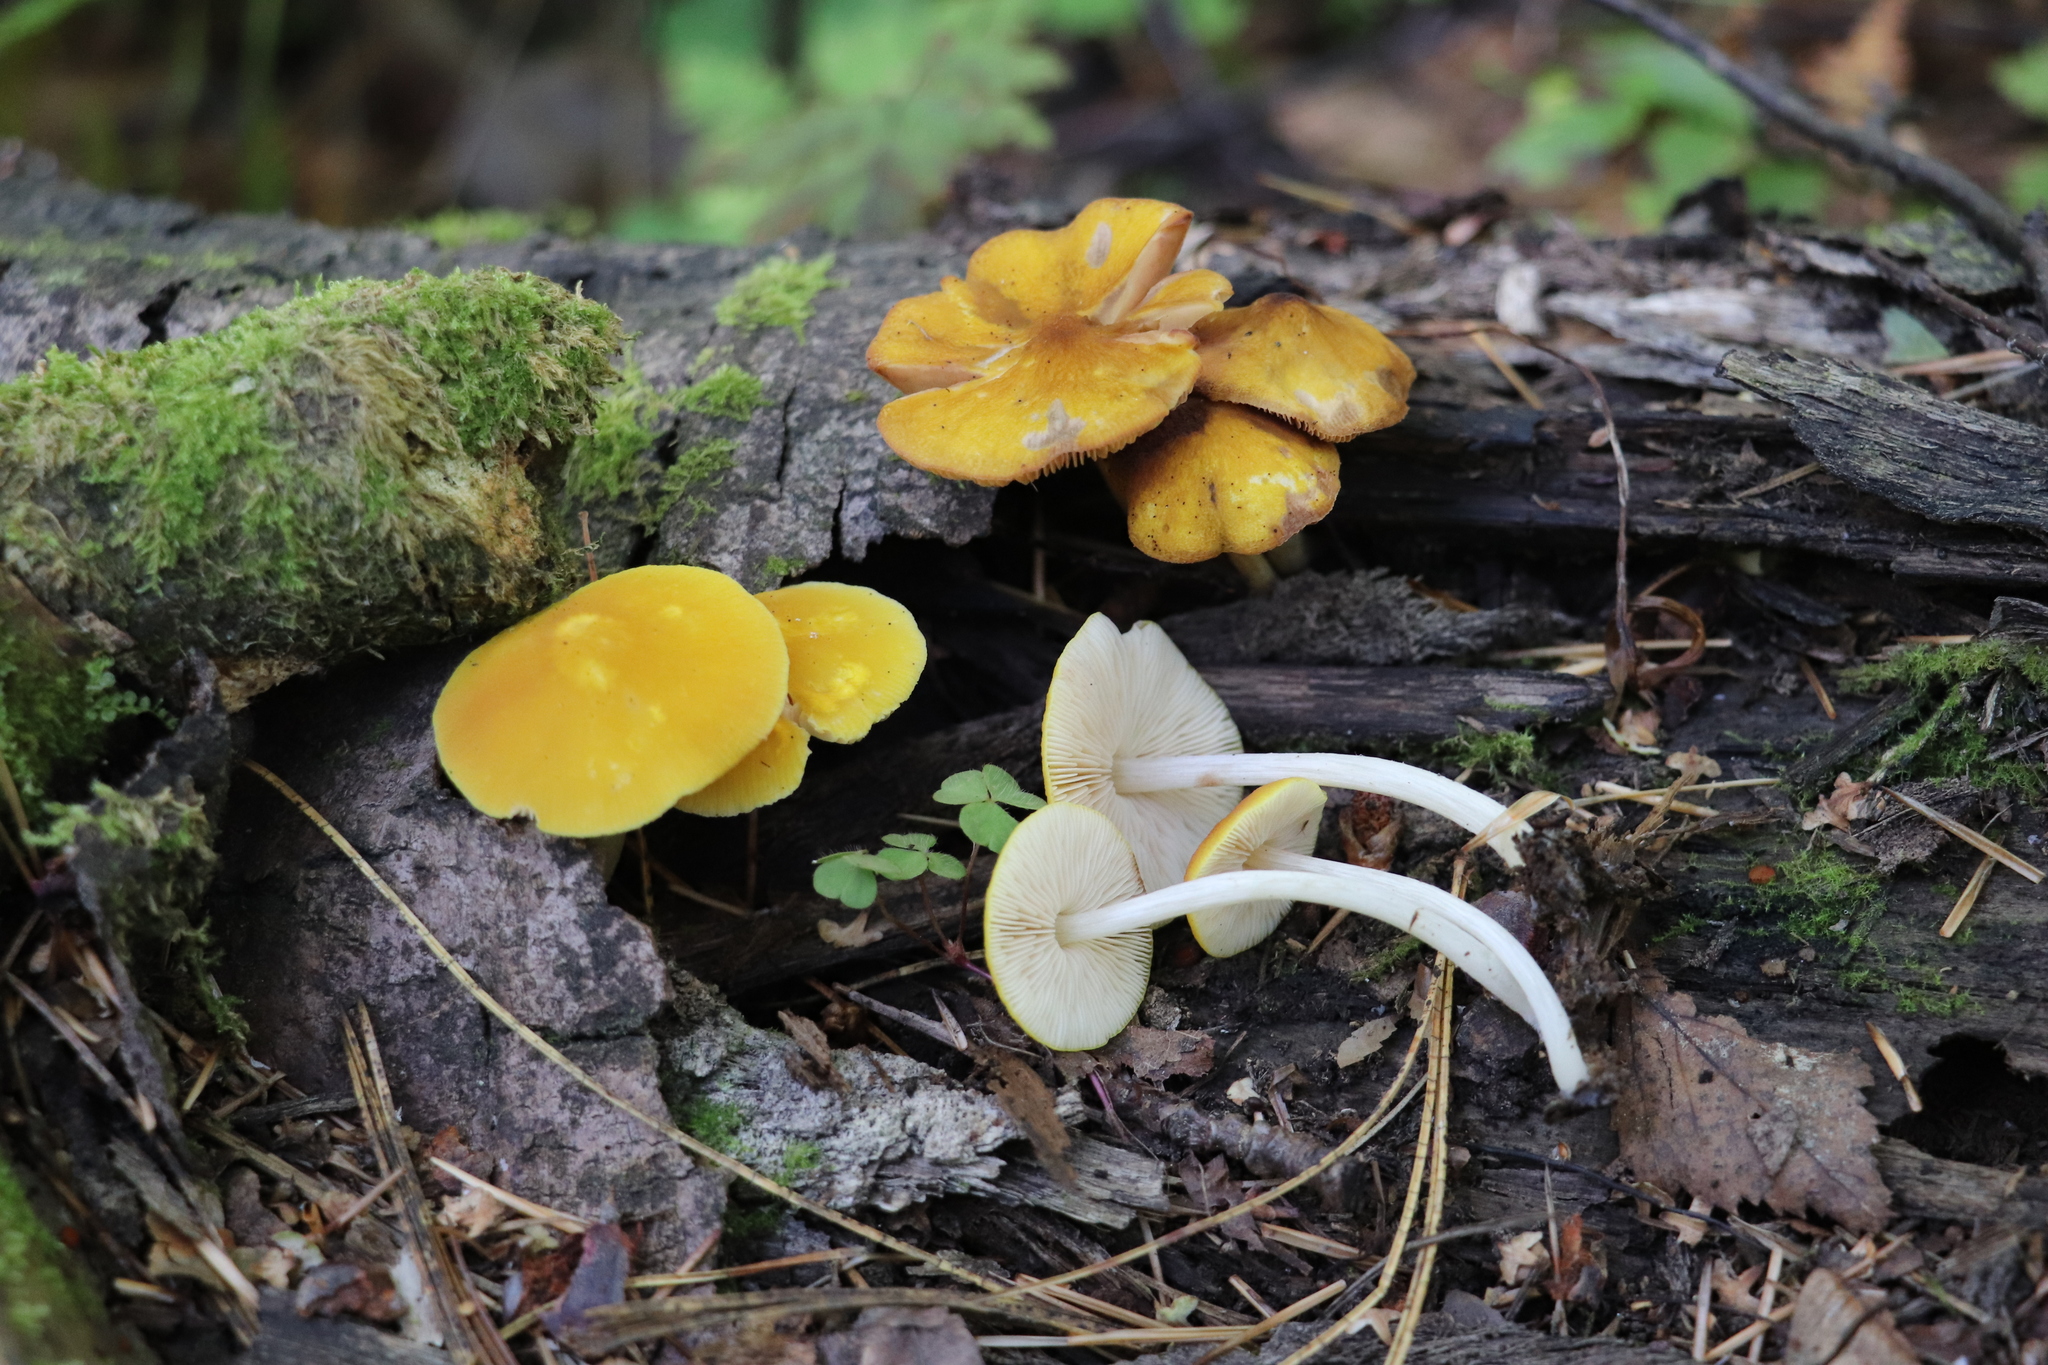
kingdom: Fungi
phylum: Basidiomycota
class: Agaricomycetes
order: Agaricales
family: Pluteaceae
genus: Pluteus
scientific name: Pluteus chrysophlebius
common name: Yellow deer mushroom
